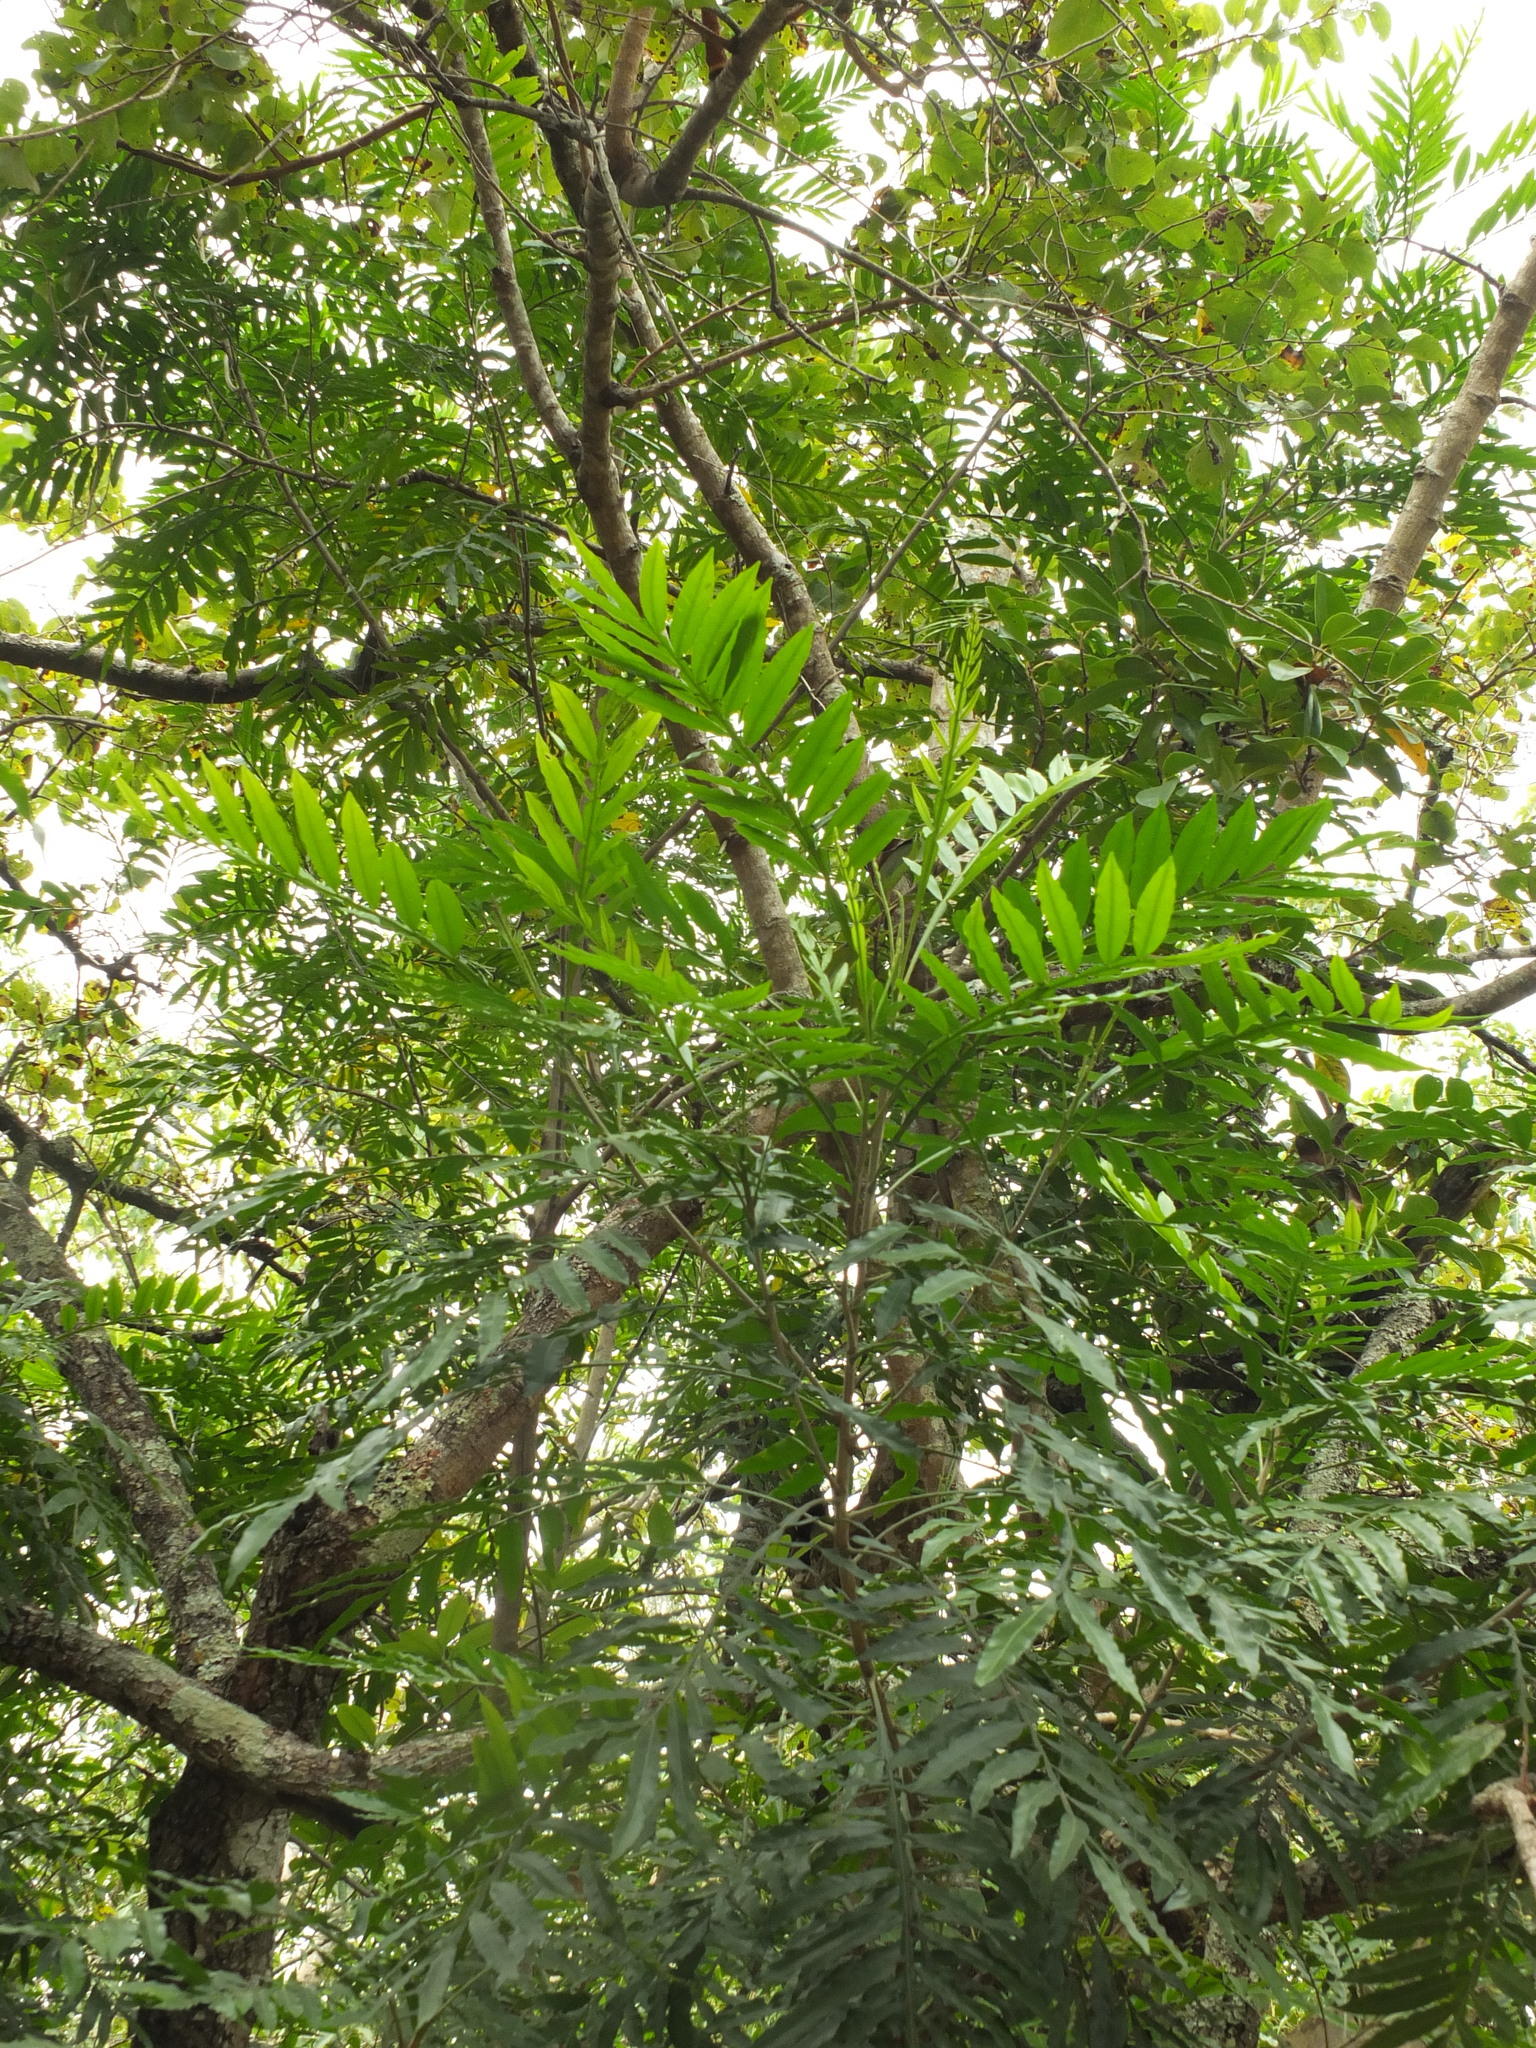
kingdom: Plantae
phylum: Tracheophyta
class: Magnoliopsida
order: Sapindales
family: Sapindaceae
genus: Filicium
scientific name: Filicium decipiens
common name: Ferntree
